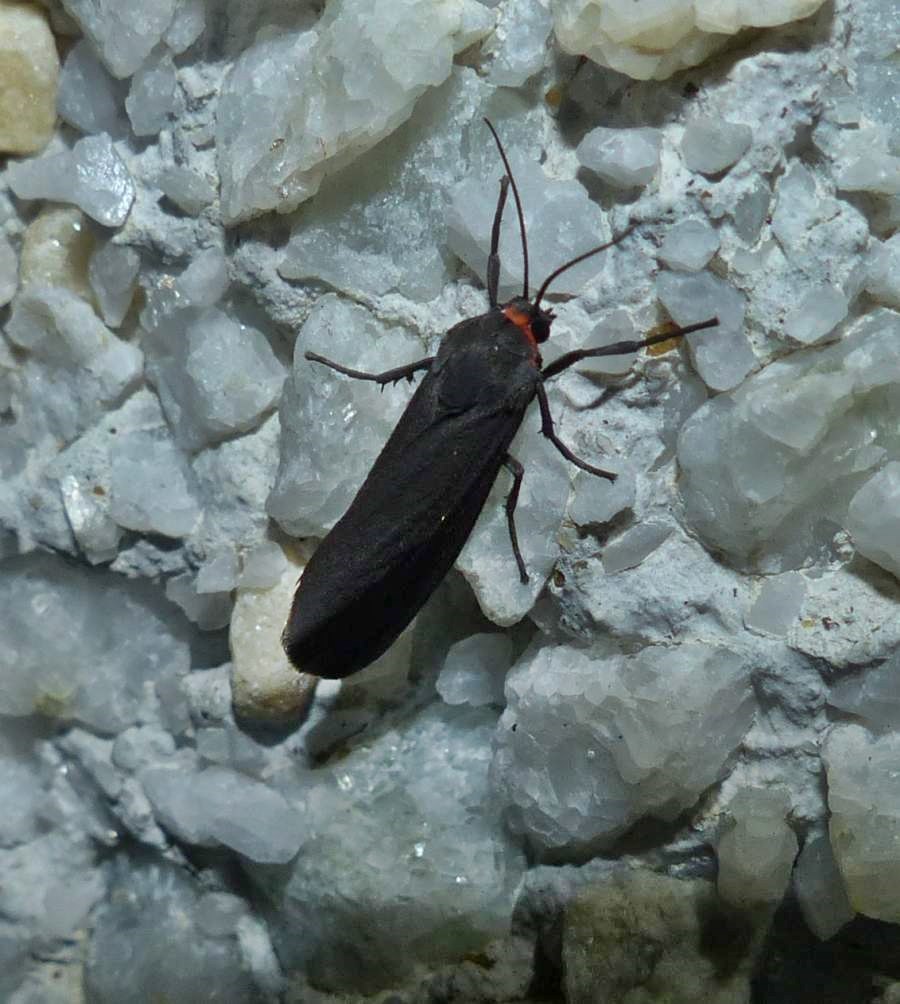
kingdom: Animalia
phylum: Arthropoda
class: Insecta
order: Lepidoptera
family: Erebidae
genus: Virbia
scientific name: Virbia laeta
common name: Joyful holomelina moth
